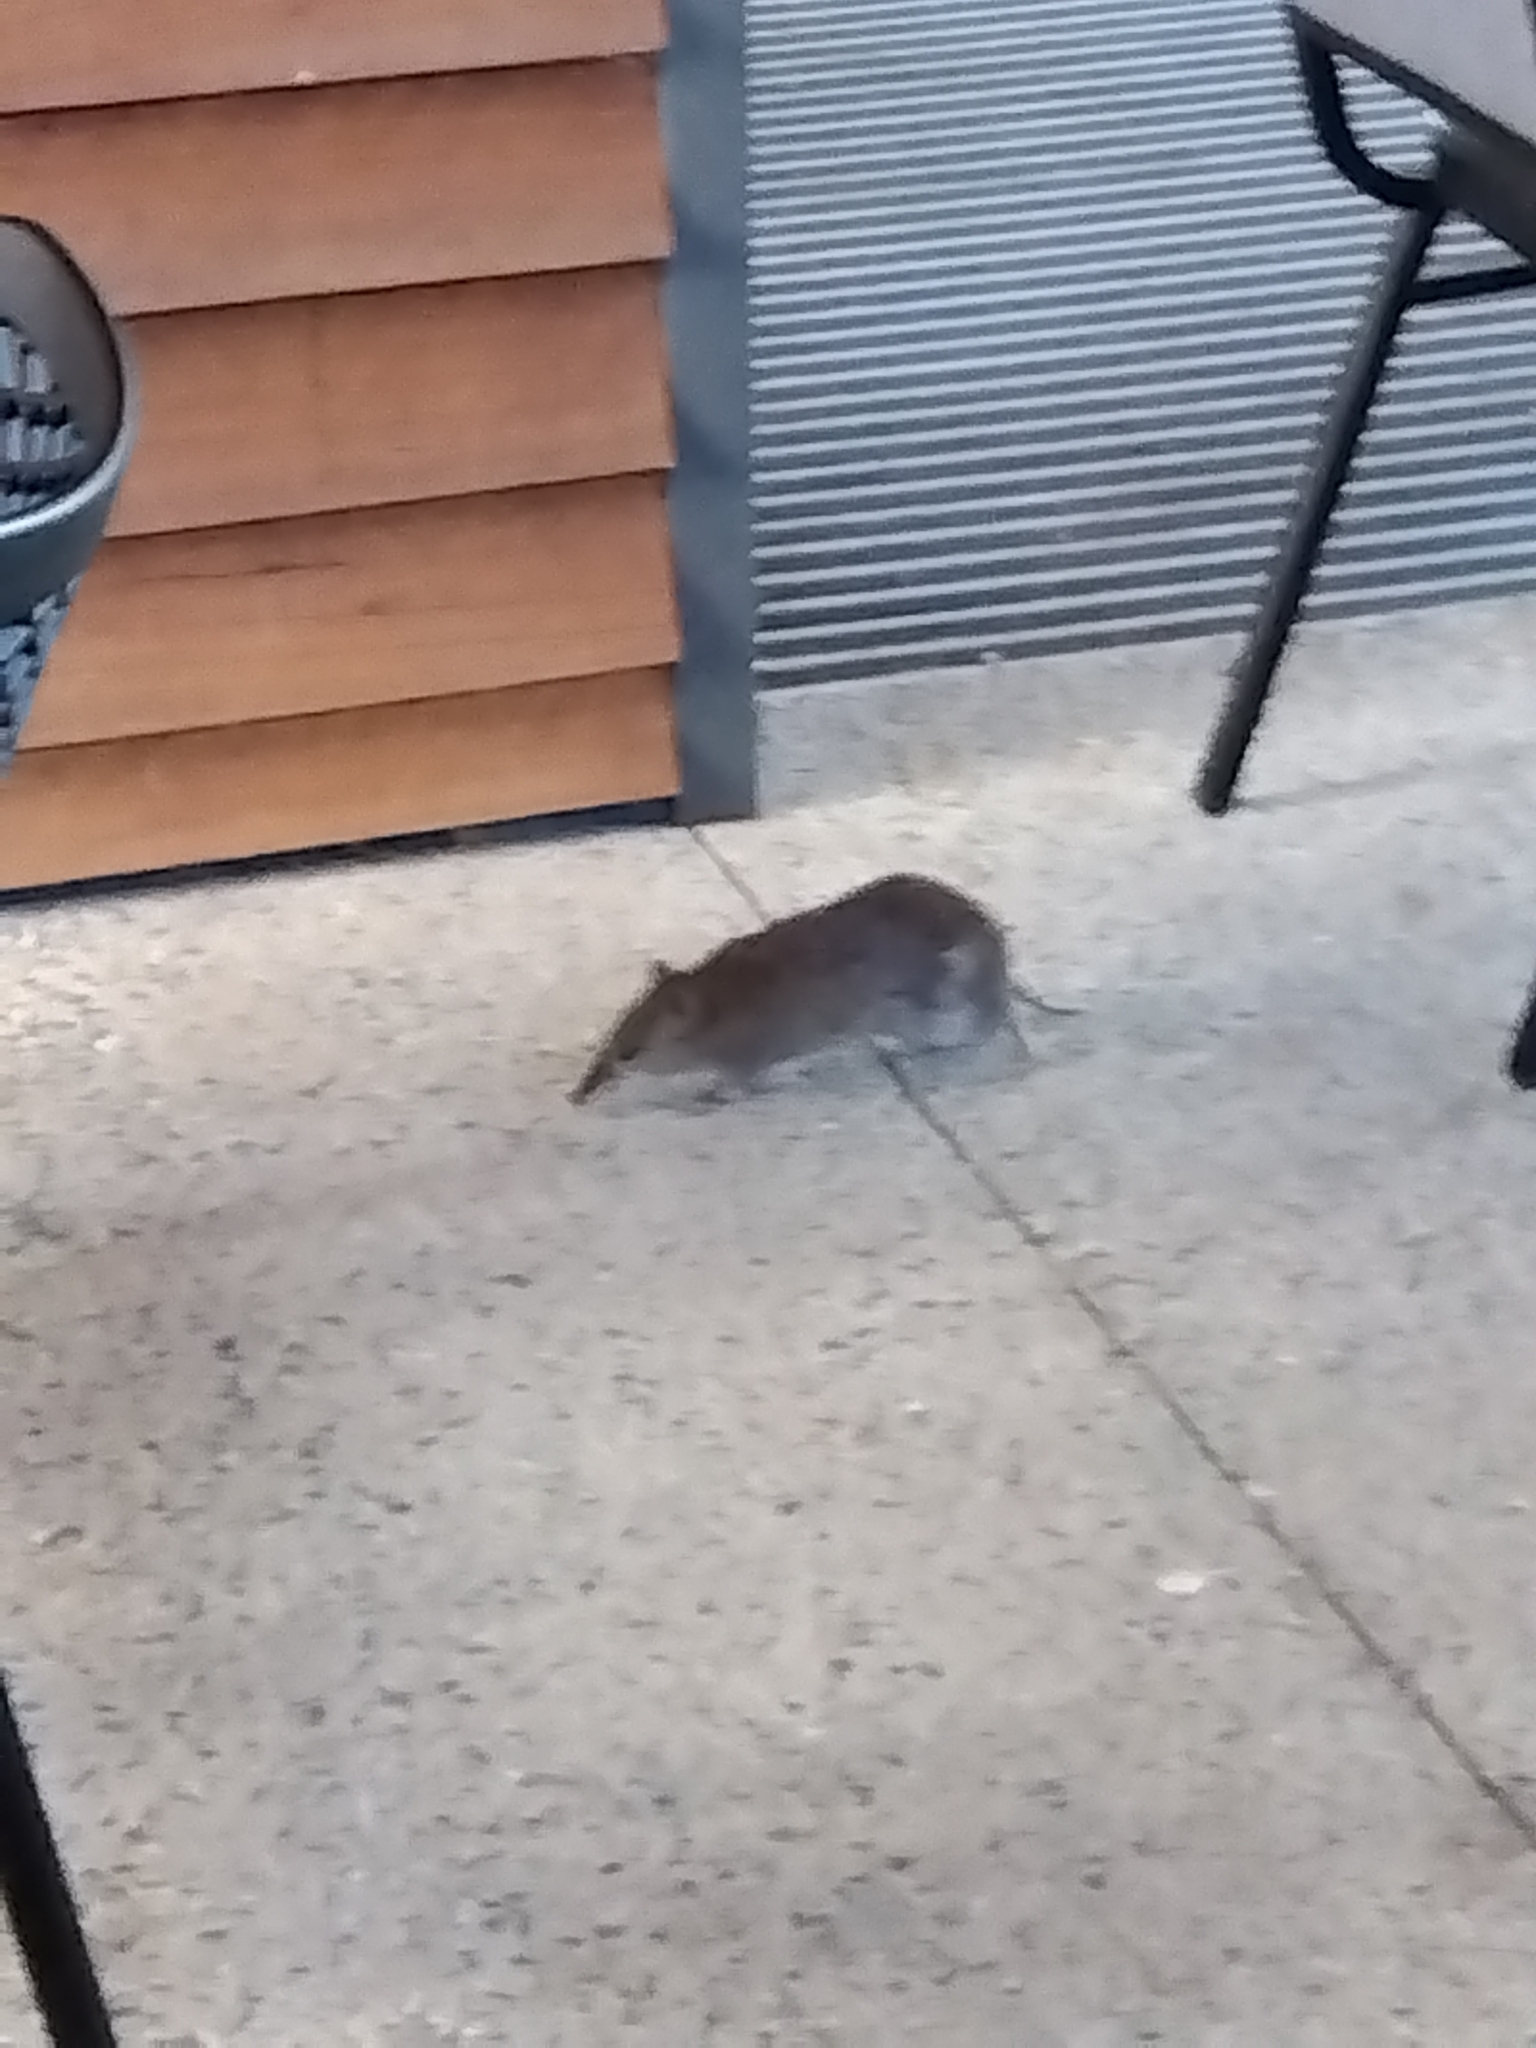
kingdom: Animalia
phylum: Chordata
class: Mammalia
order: Peramelemorphia
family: Peramelidae
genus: Isoodon
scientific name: Isoodon obesulus
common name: Southern brown bandicoot
